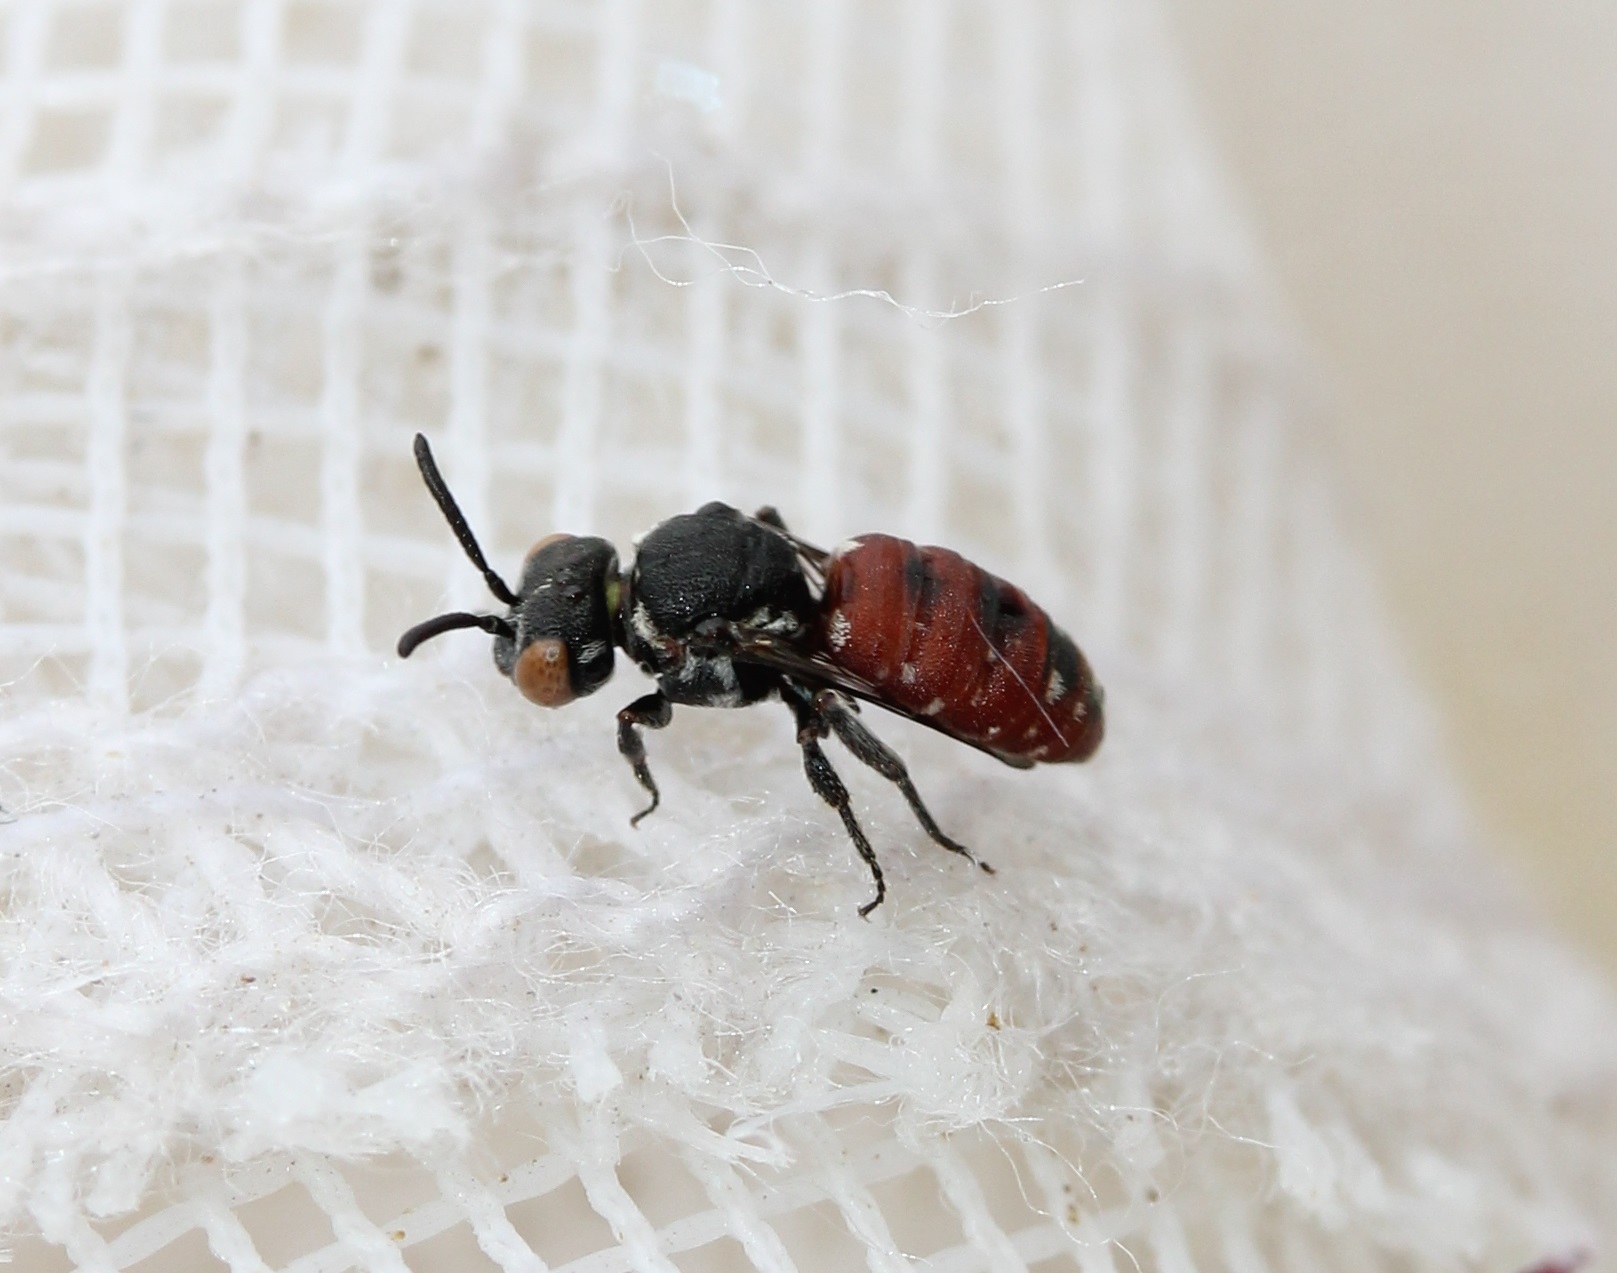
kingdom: Animalia
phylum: Arthropoda
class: Insecta
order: Hymenoptera
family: Apidae
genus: Holcopasites
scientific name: Holcopasites calliopsidis
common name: Calliopsis cuckoo nomad bee
